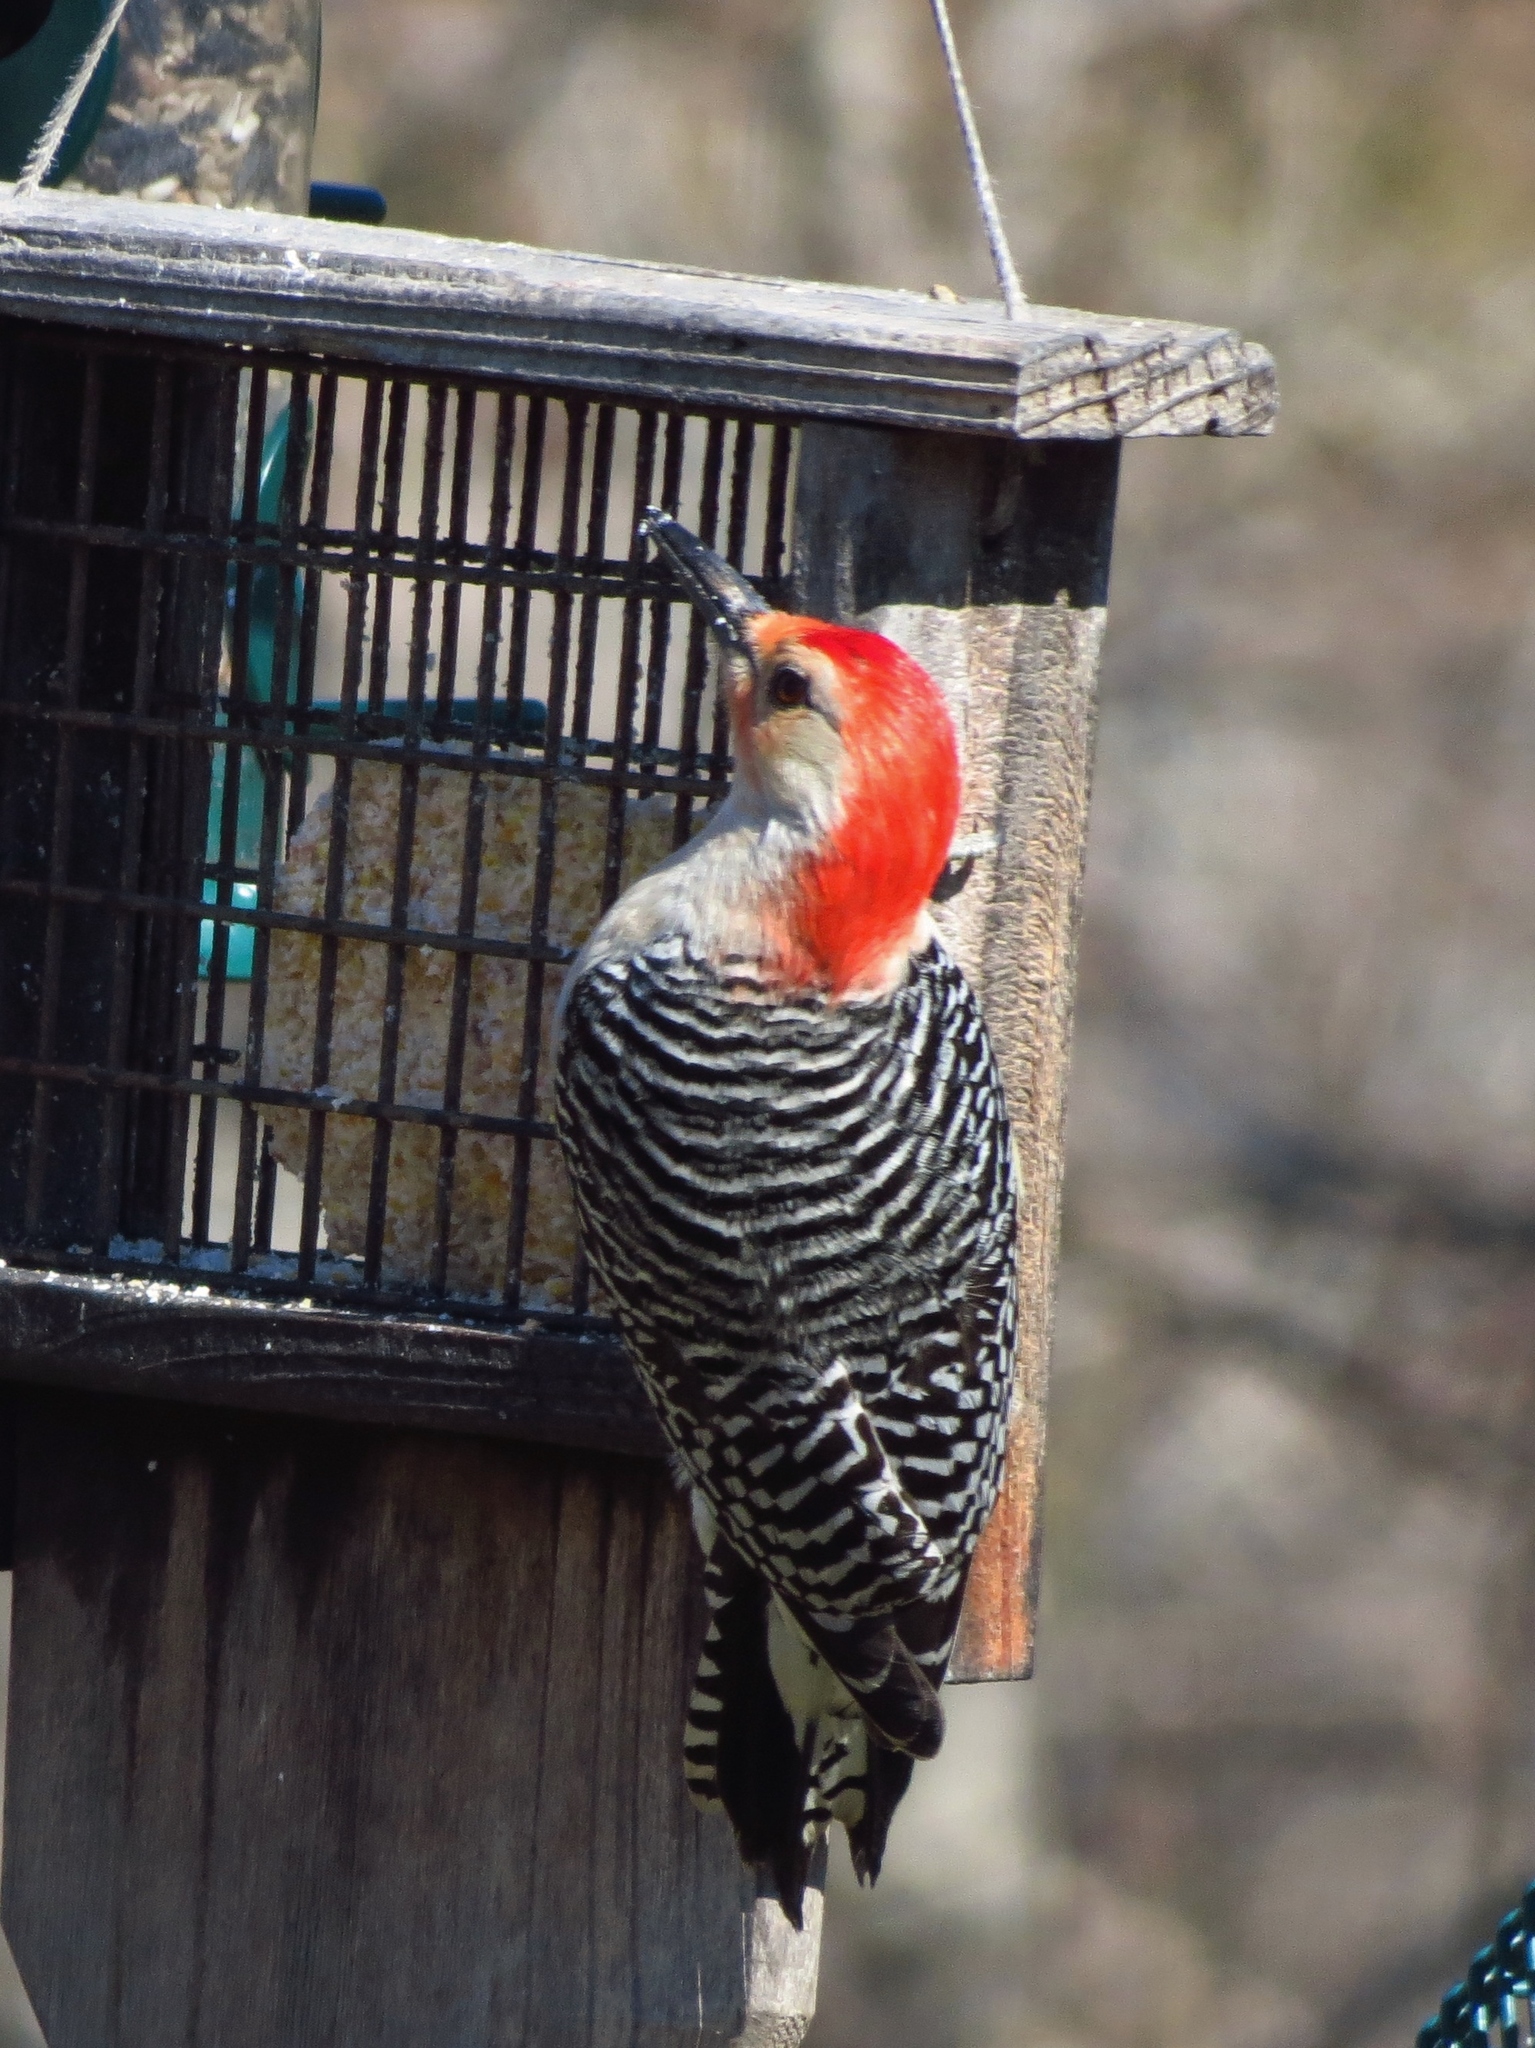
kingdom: Animalia
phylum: Chordata
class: Aves
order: Piciformes
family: Picidae
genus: Melanerpes
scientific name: Melanerpes carolinus
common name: Red-bellied woodpecker
